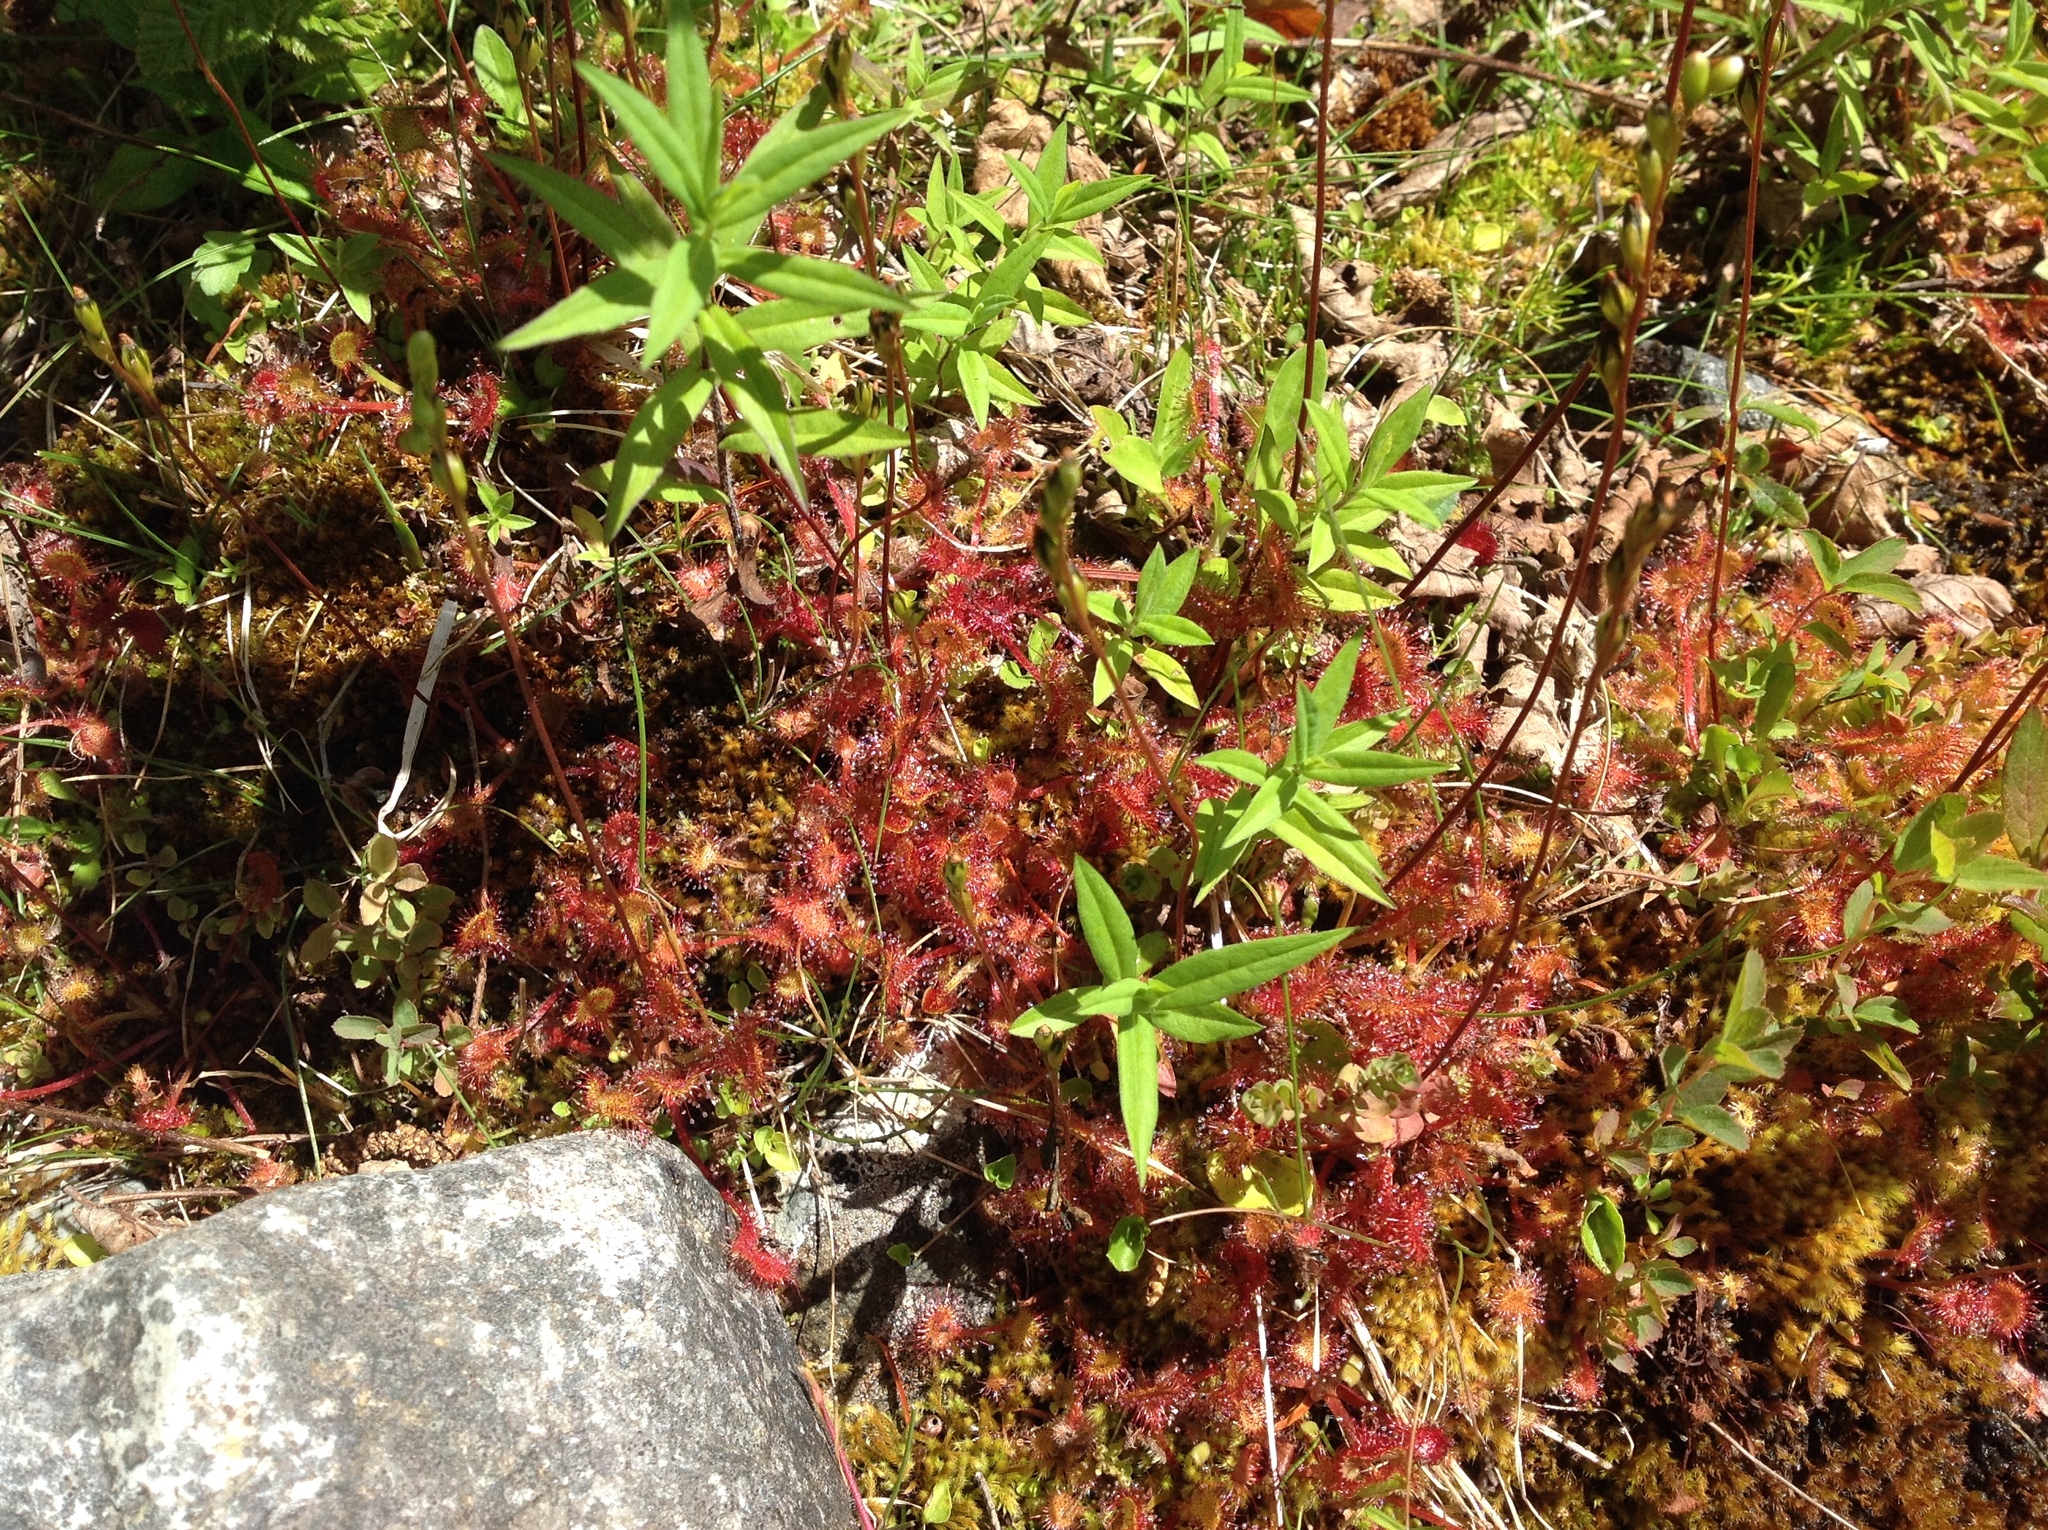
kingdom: Plantae
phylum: Tracheophyta
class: Magnoliopsida
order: Caryophyllales
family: Droseraceae
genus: Drosera
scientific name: Drosera rotundifolia
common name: Round-leaved sundew
